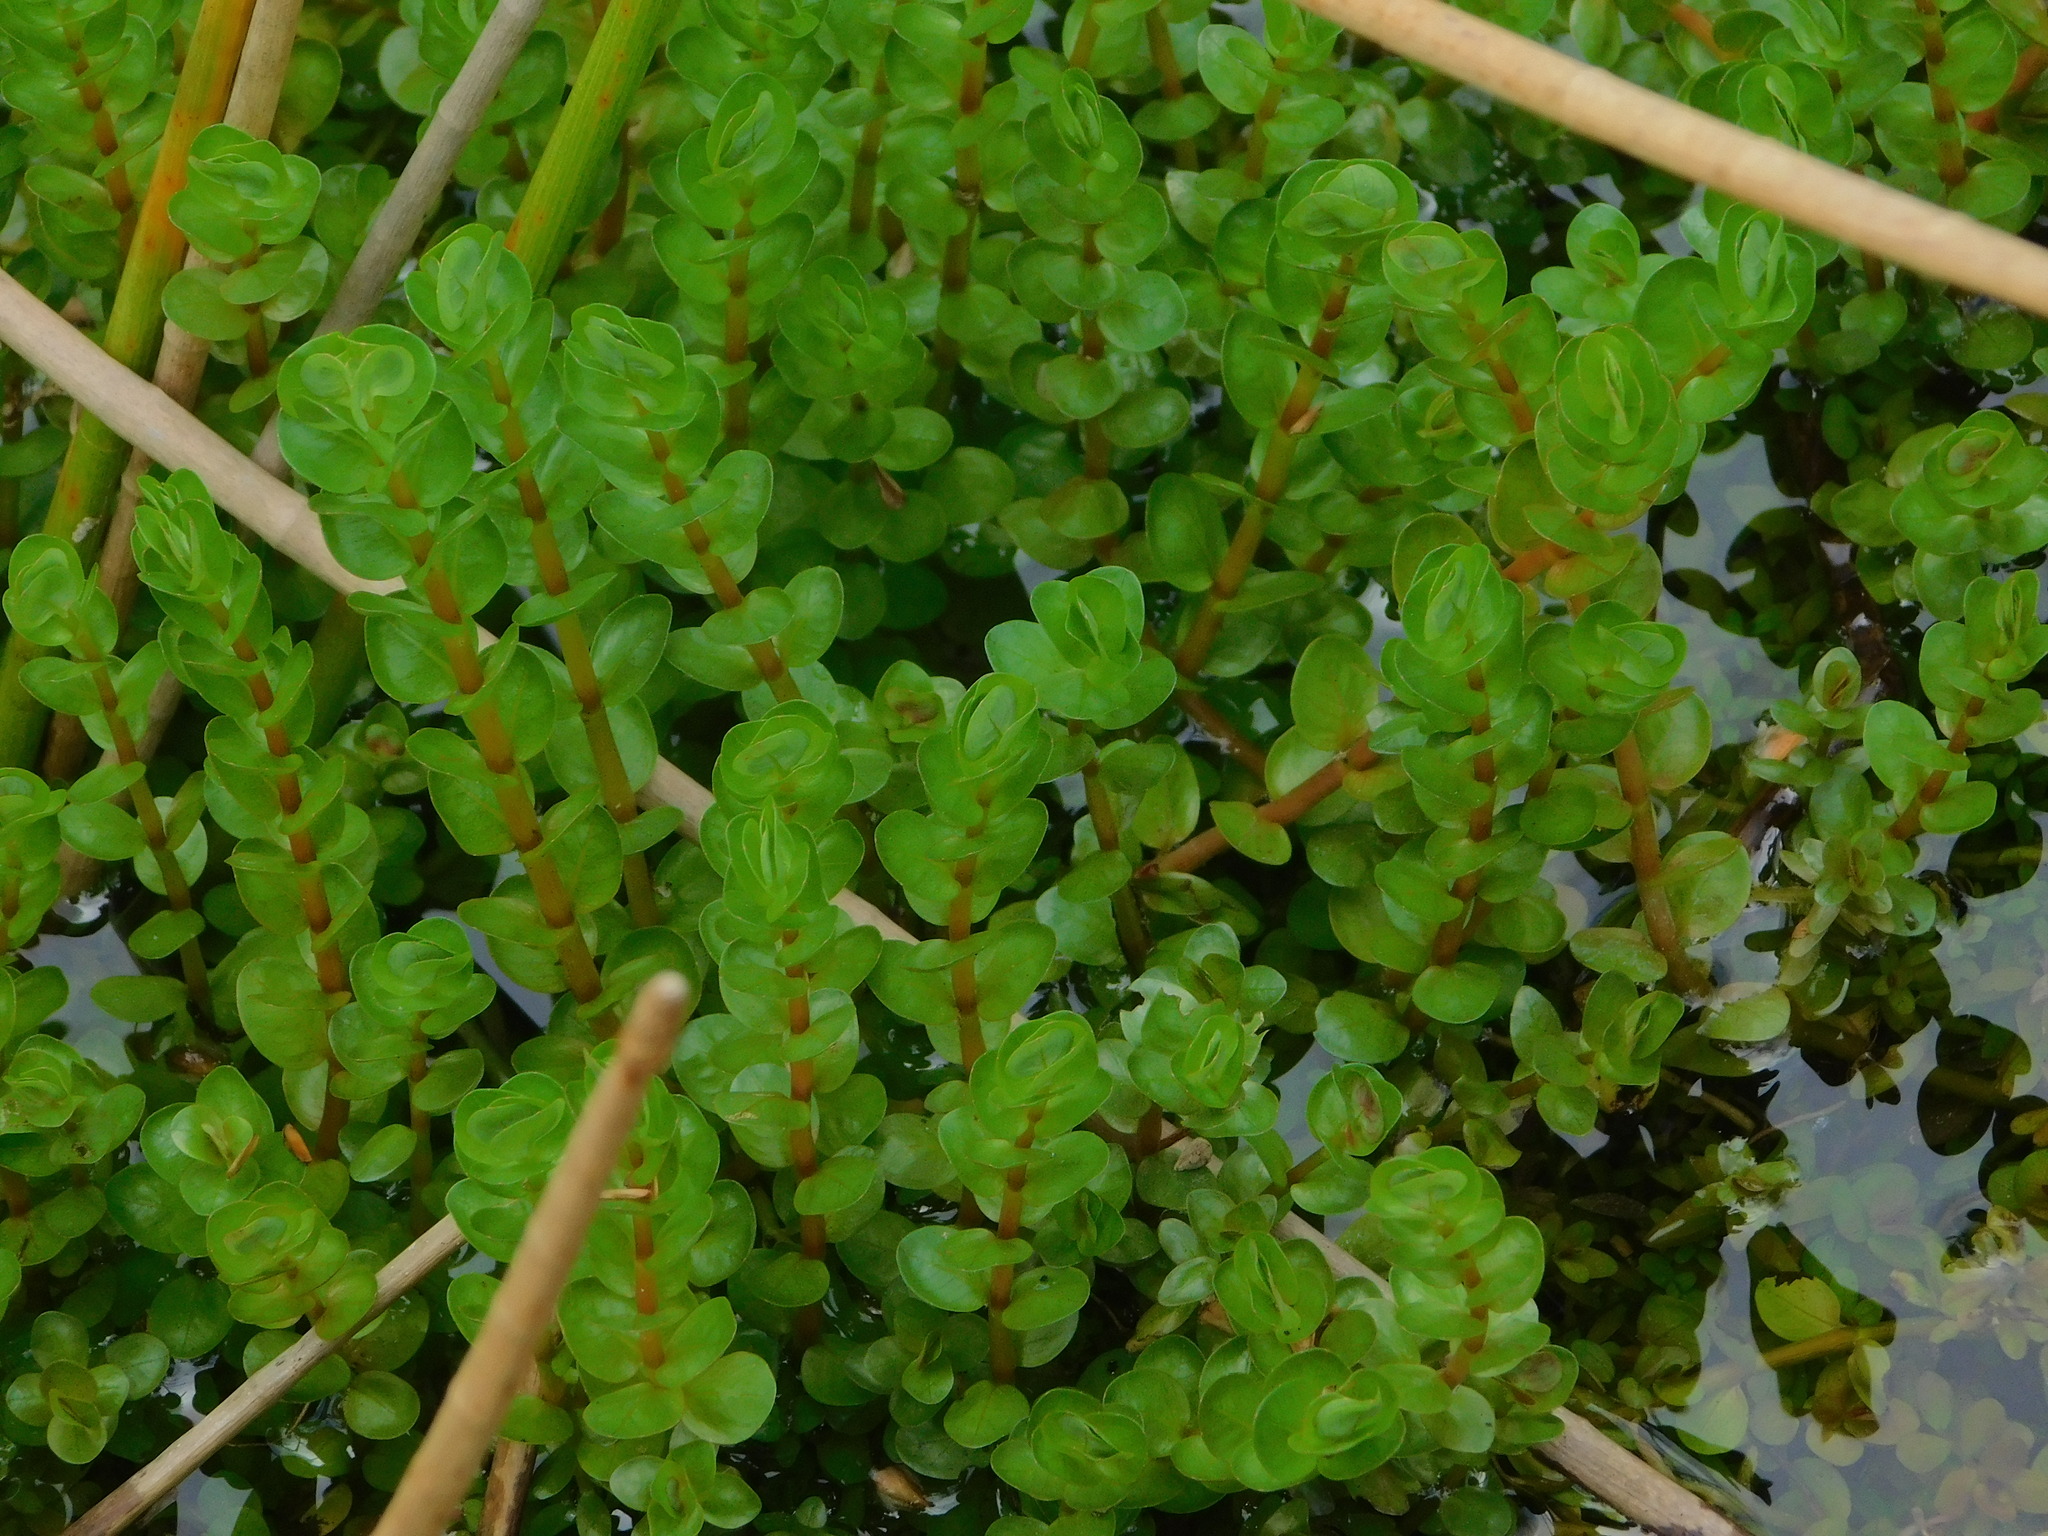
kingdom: Plantae
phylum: Tracheophyta
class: Magnoliopsida
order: Myrtales
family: Lythraceae
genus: Rotala
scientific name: Rotala rotundifolia
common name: Roundleaf toothcup
